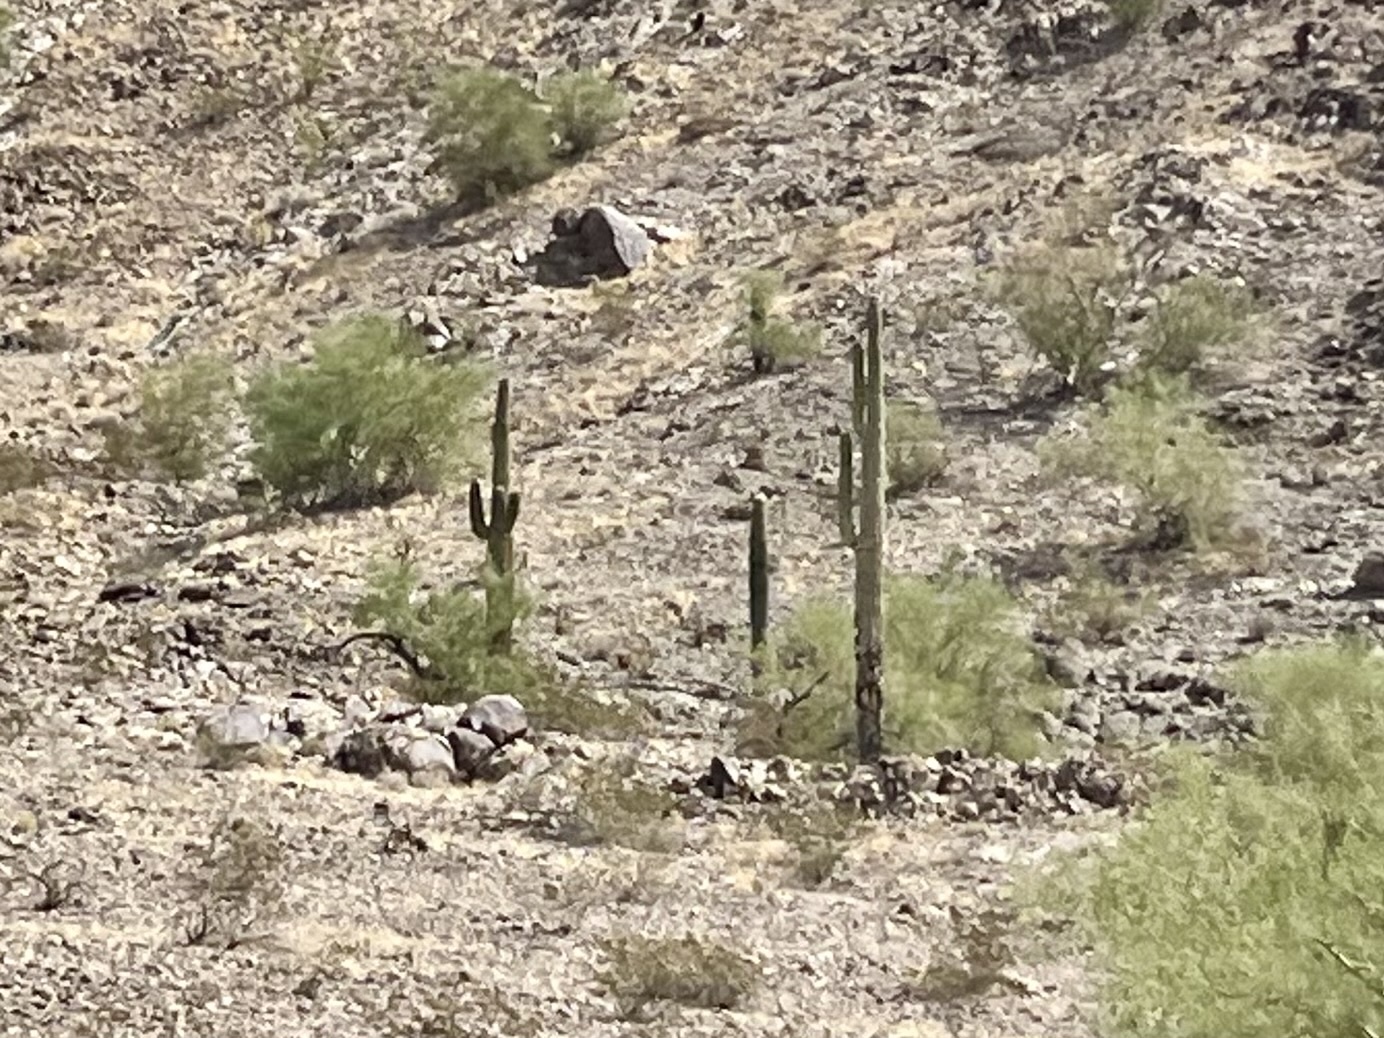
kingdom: Plantae
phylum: Tracheophyta
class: Magnoliopsida
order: Caryophyllales
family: Cactaceae
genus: Carnegiea
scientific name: Carnegiea gigantea
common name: Saguaro
